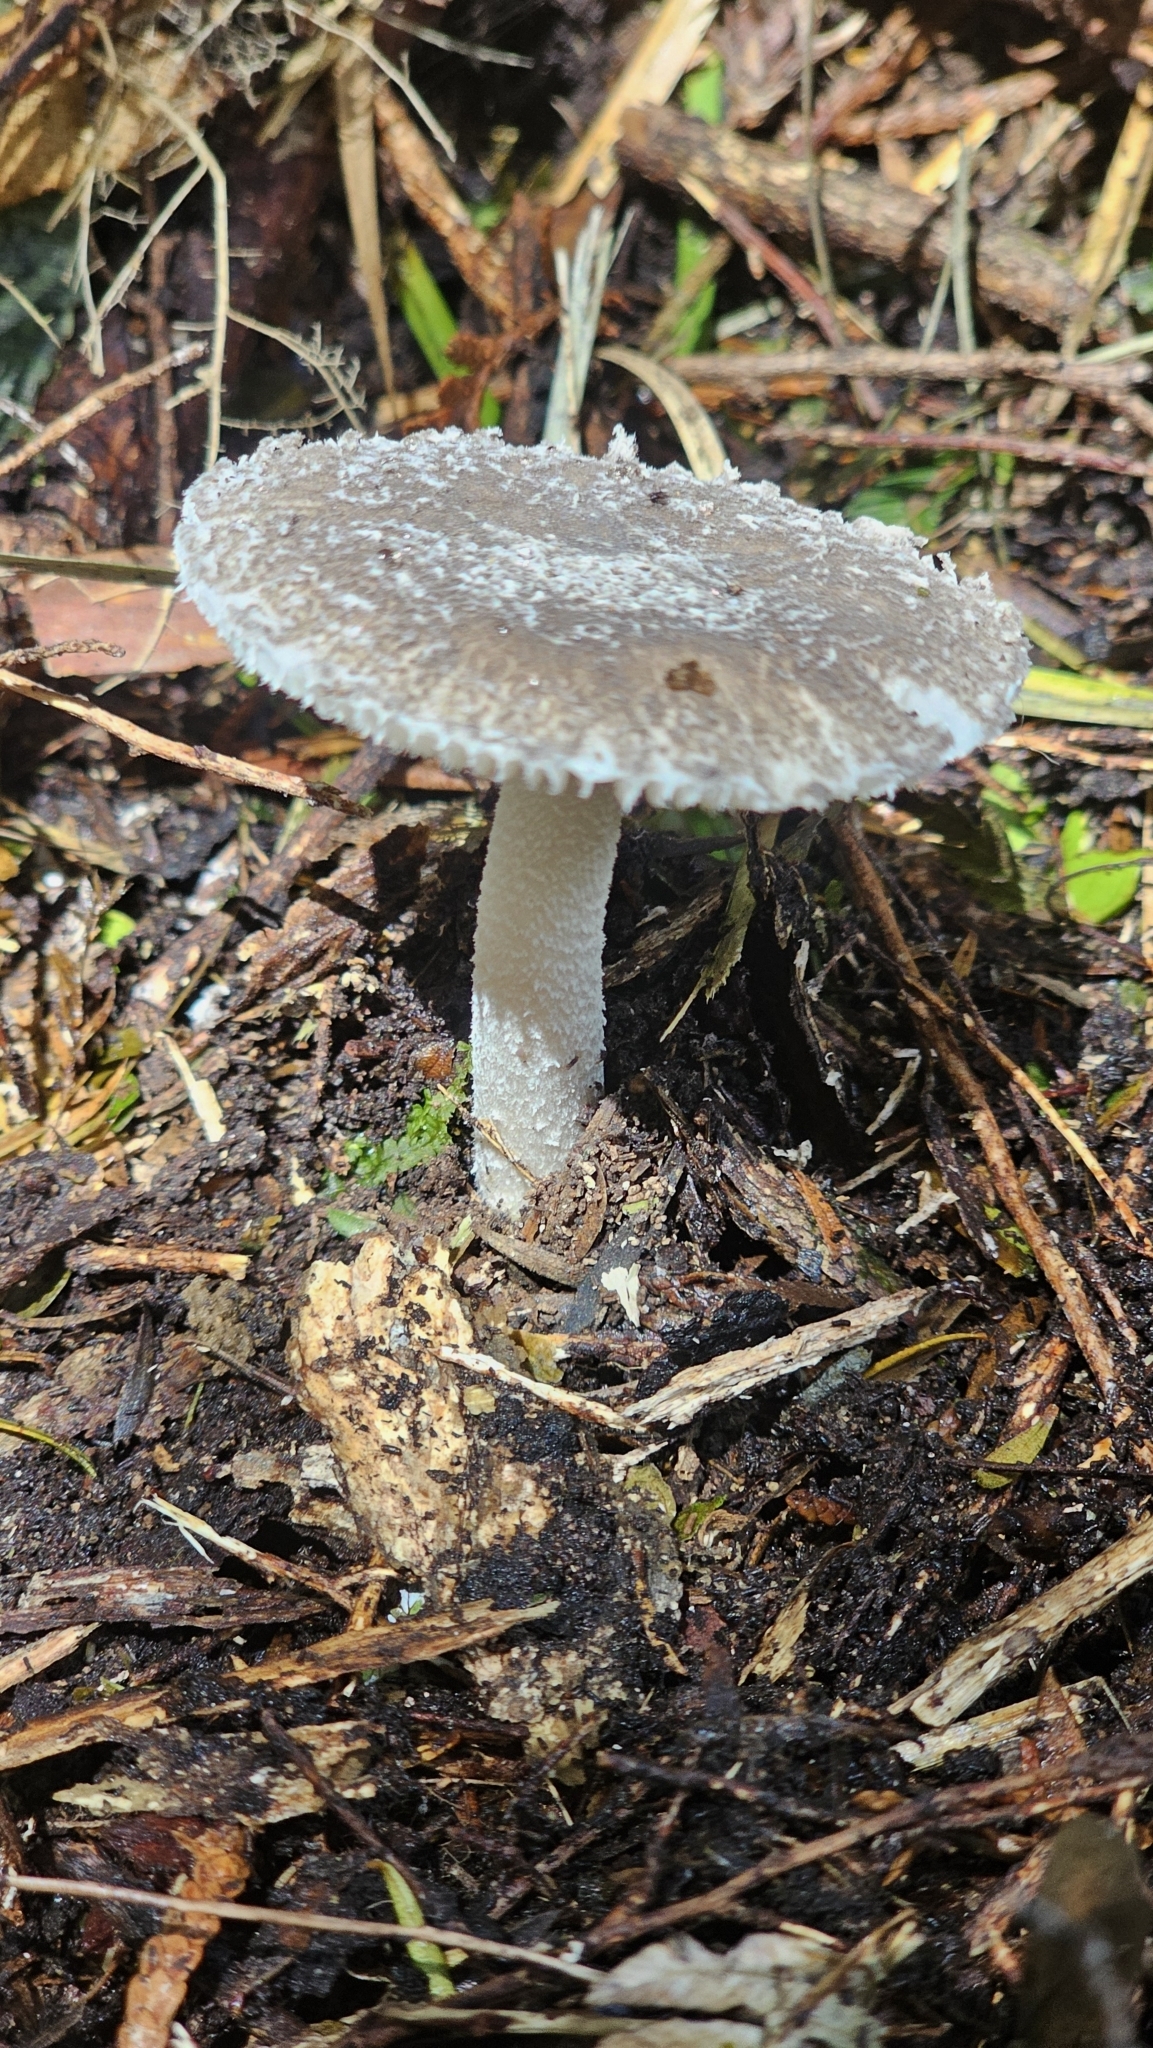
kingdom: Fungi
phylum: Basidiomycota
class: Agaricomycetes
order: Agaricales
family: Amanitaceae
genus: Amanita
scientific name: Amanita nehuta
